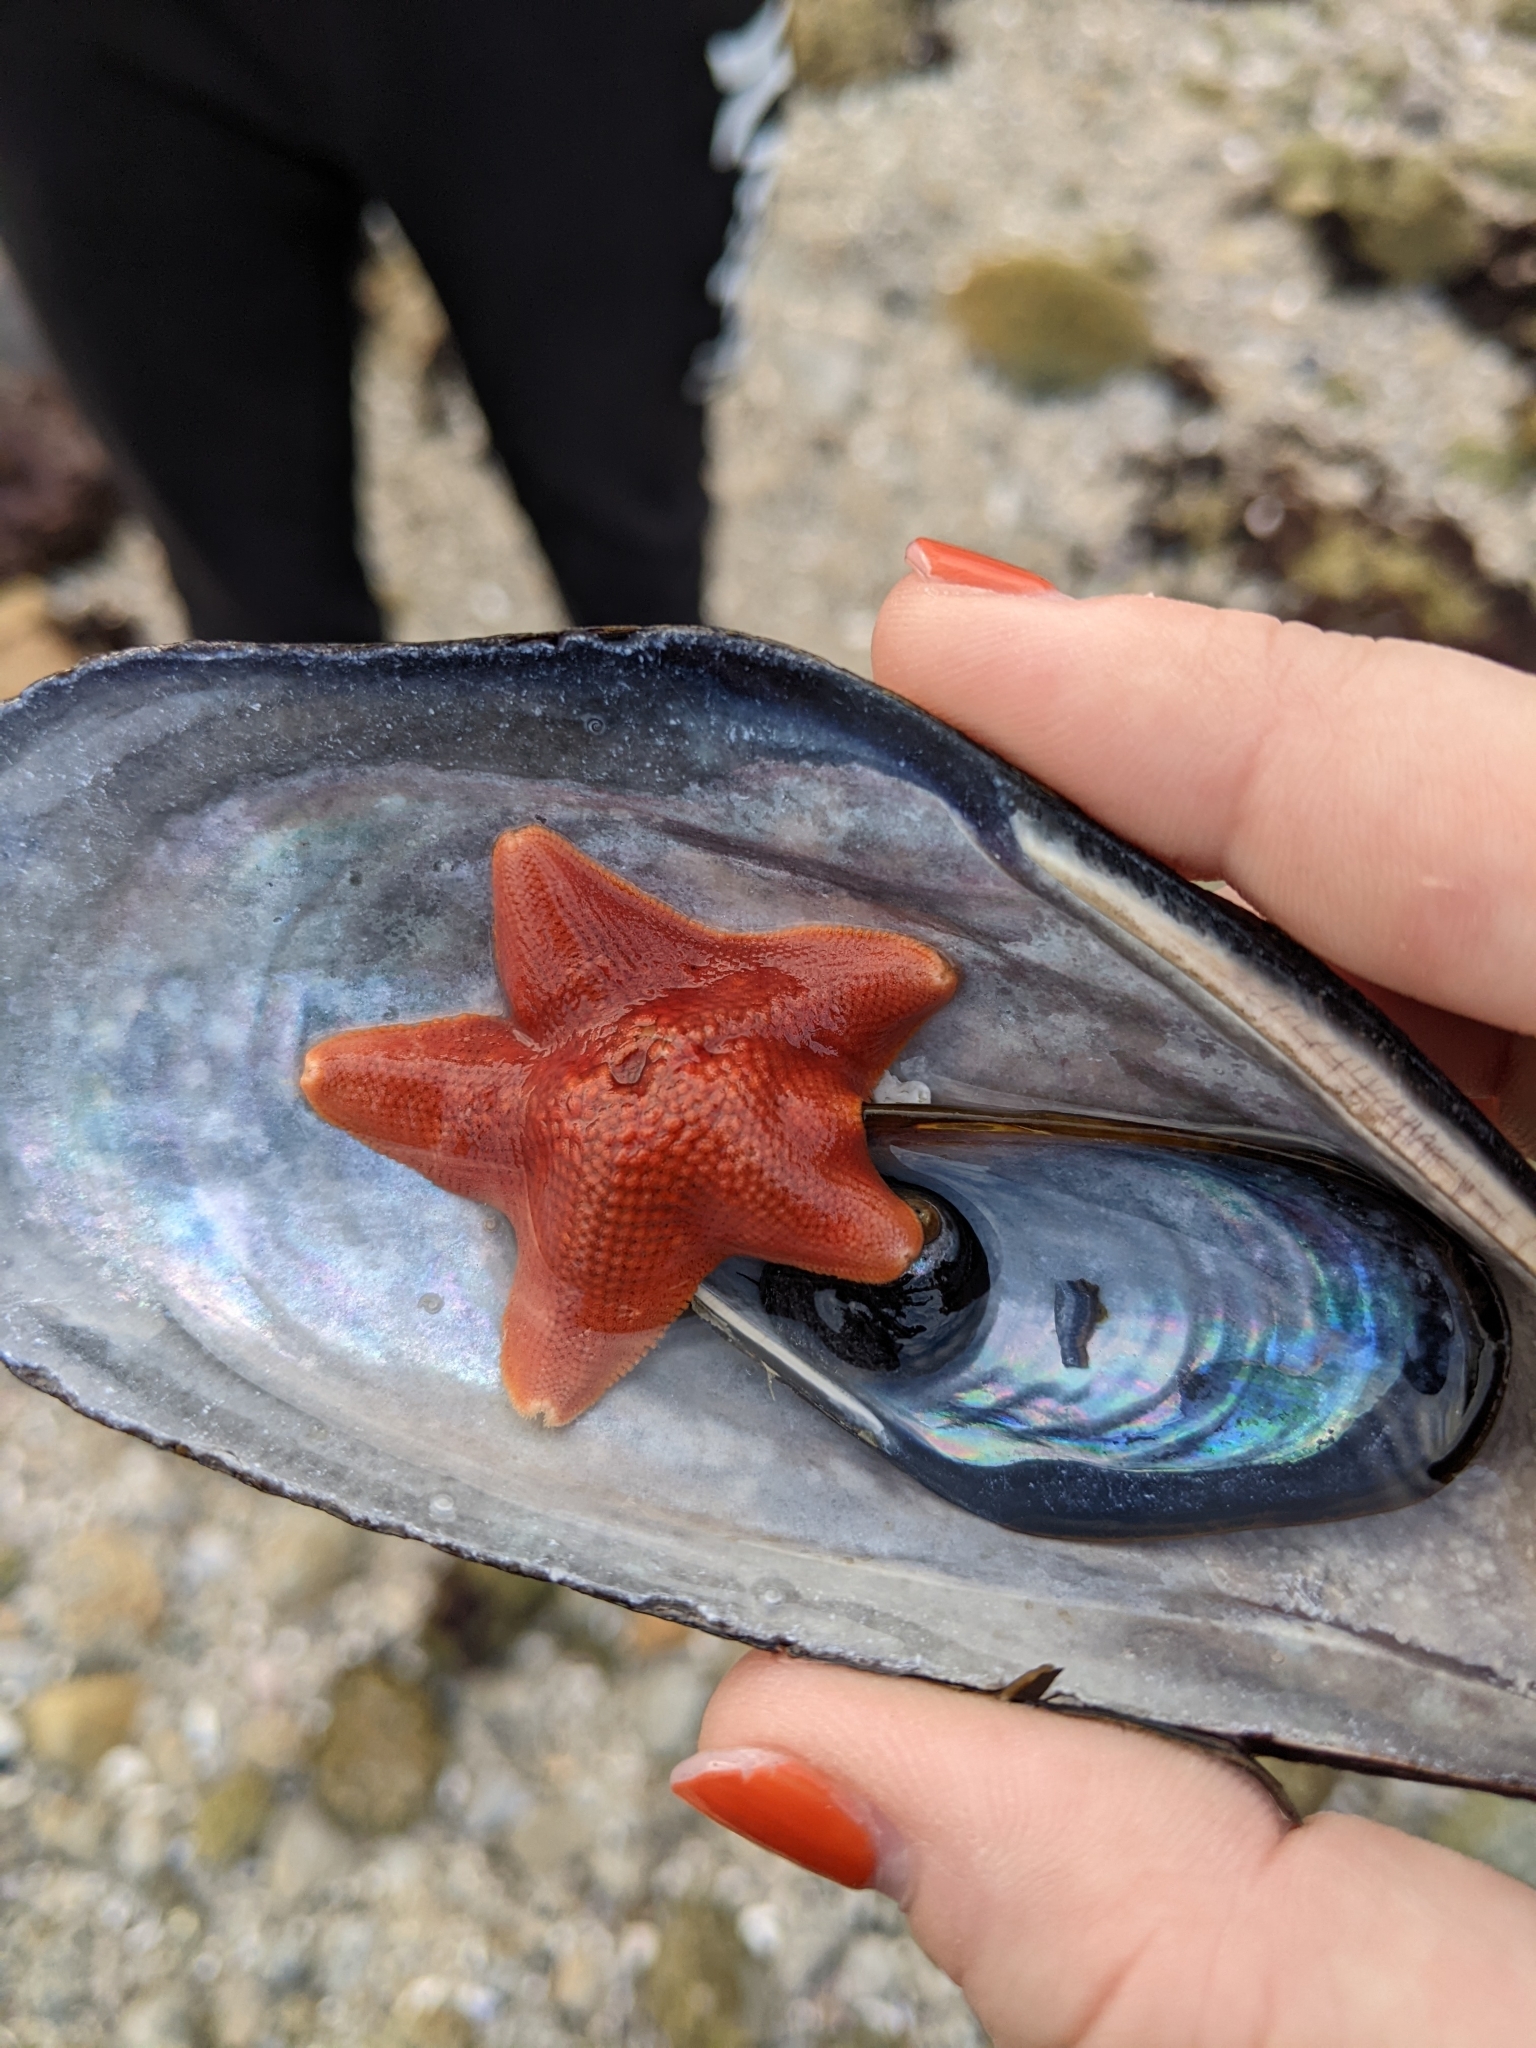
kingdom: Animalia
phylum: Echinodermata
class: Asteroidea
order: Valvatida
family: Asterinidae
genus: Patiria
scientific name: Patiria miniata
